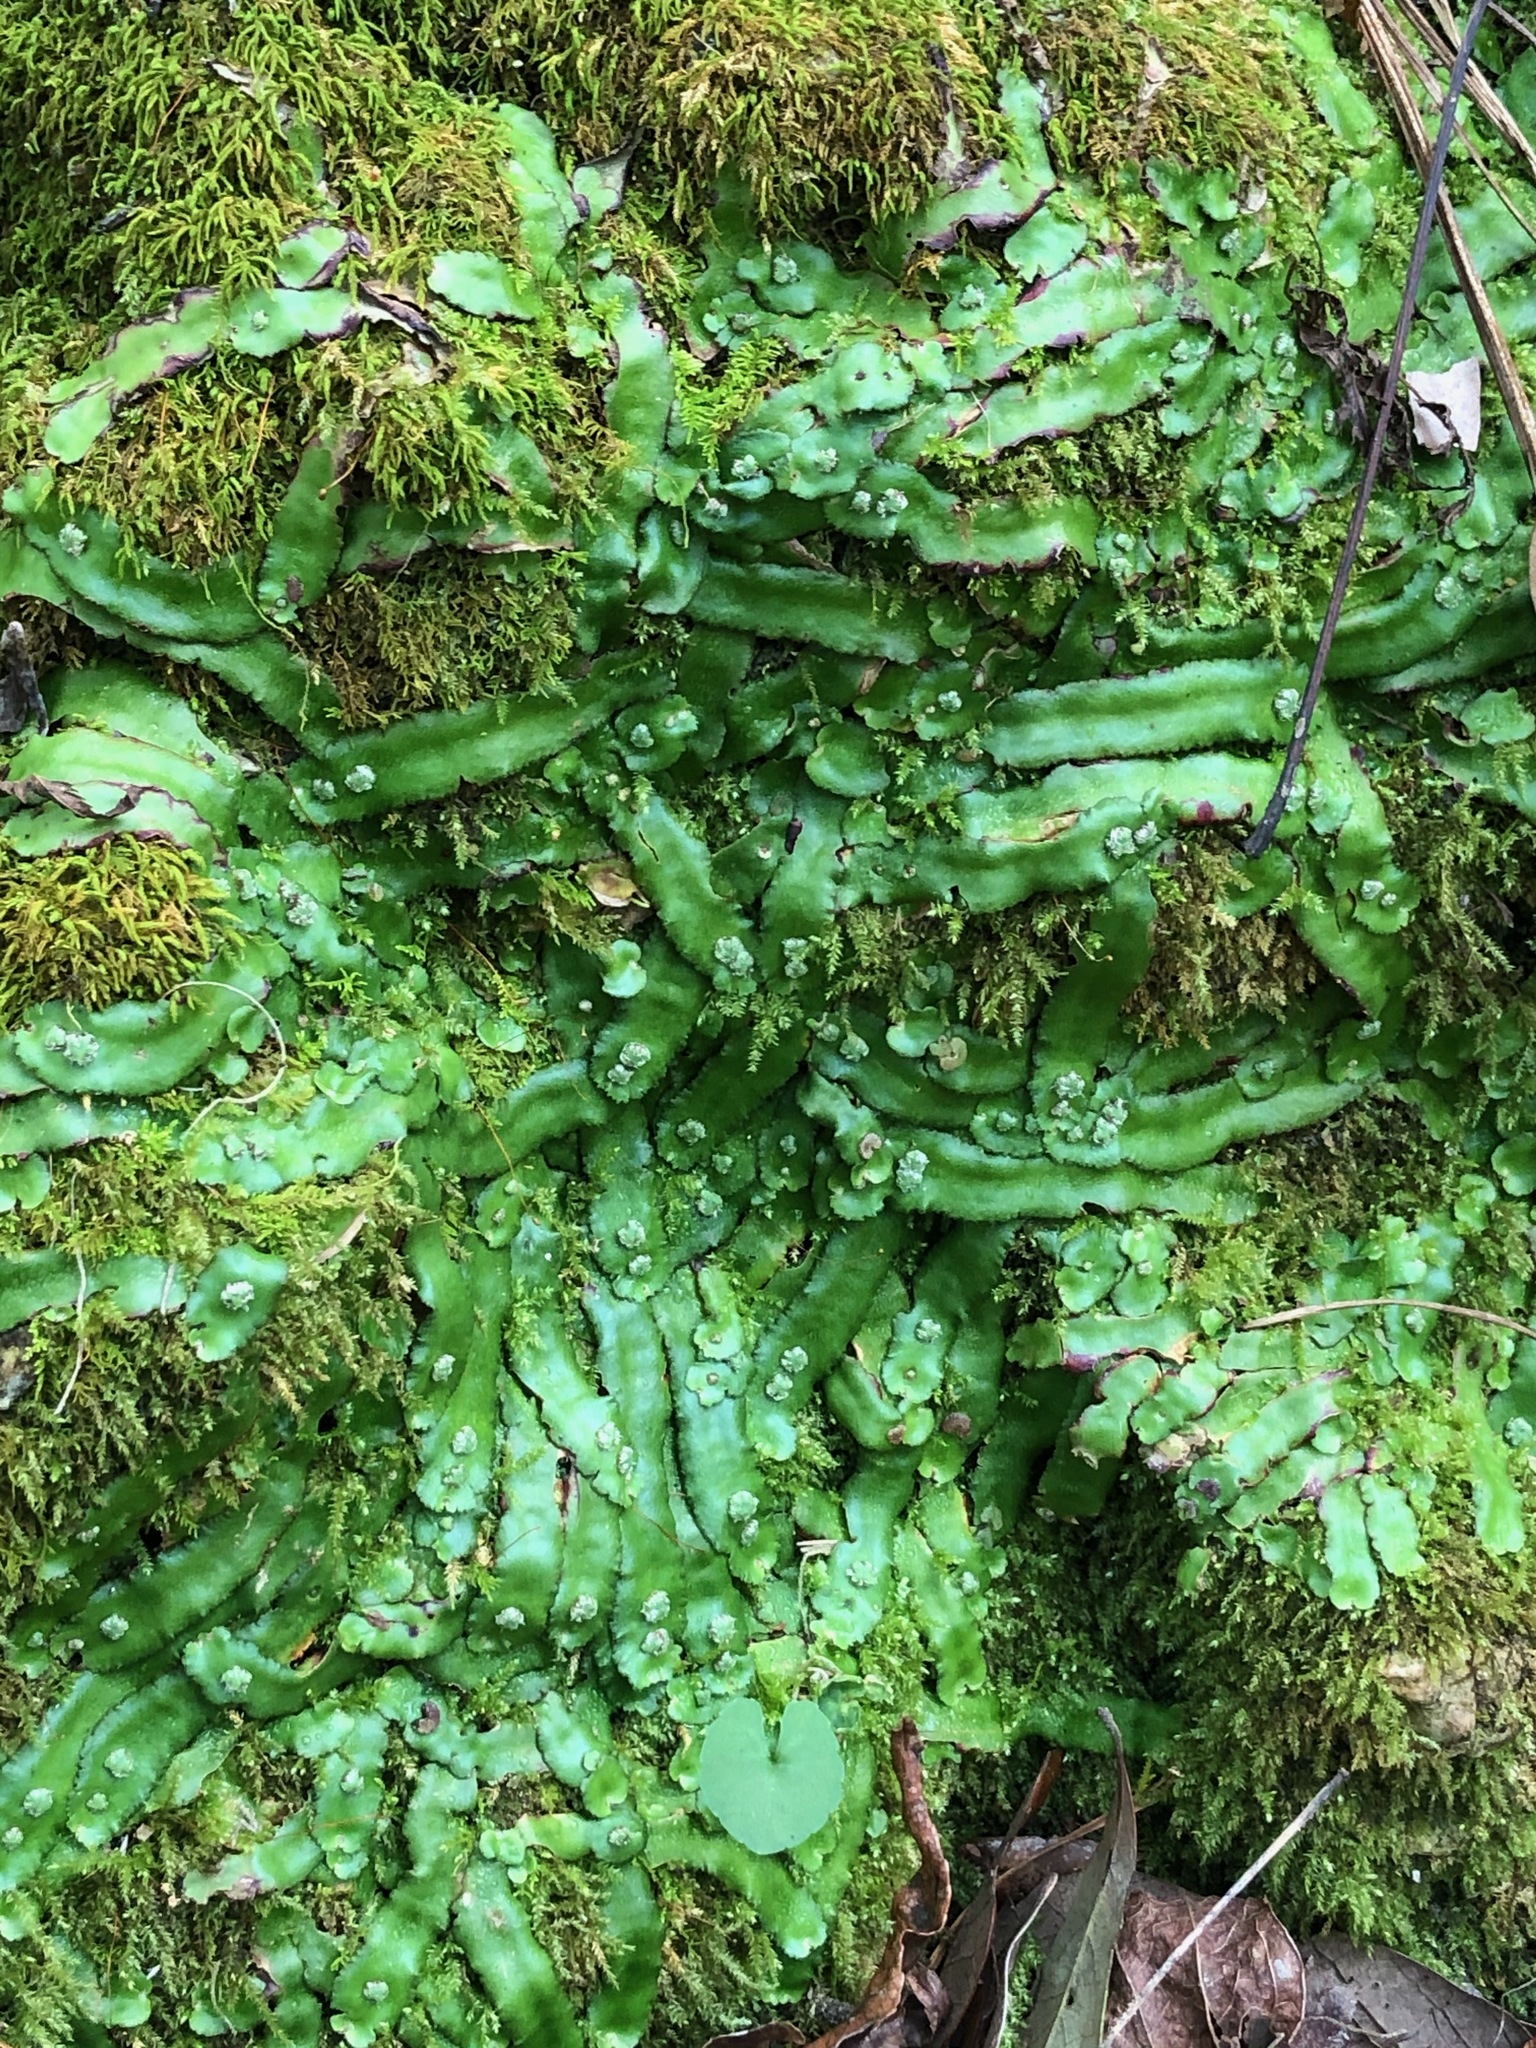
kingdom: Plantae
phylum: Marchantiophyta
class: Marchantiopsida
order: Marchantiales
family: Aytoniaceae
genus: Reboulia
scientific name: Reboulia hemisphaerica
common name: Purple-margined liverwort
